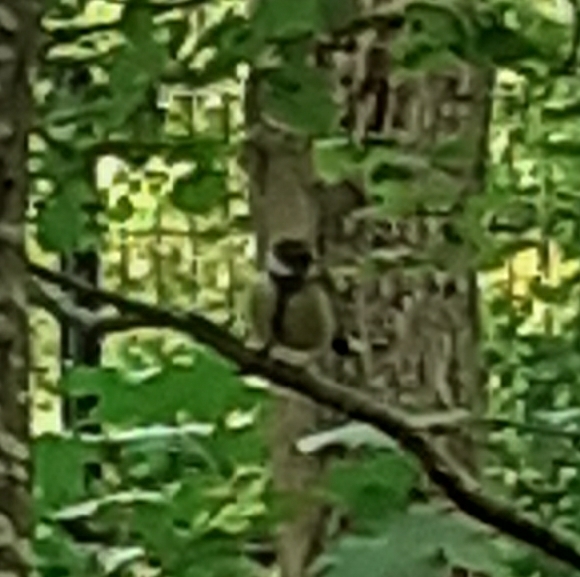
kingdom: Animalia
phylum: Chordata
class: Aves
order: Passeriformes
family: Paridae
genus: Parus
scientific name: Parus major
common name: Great tit
